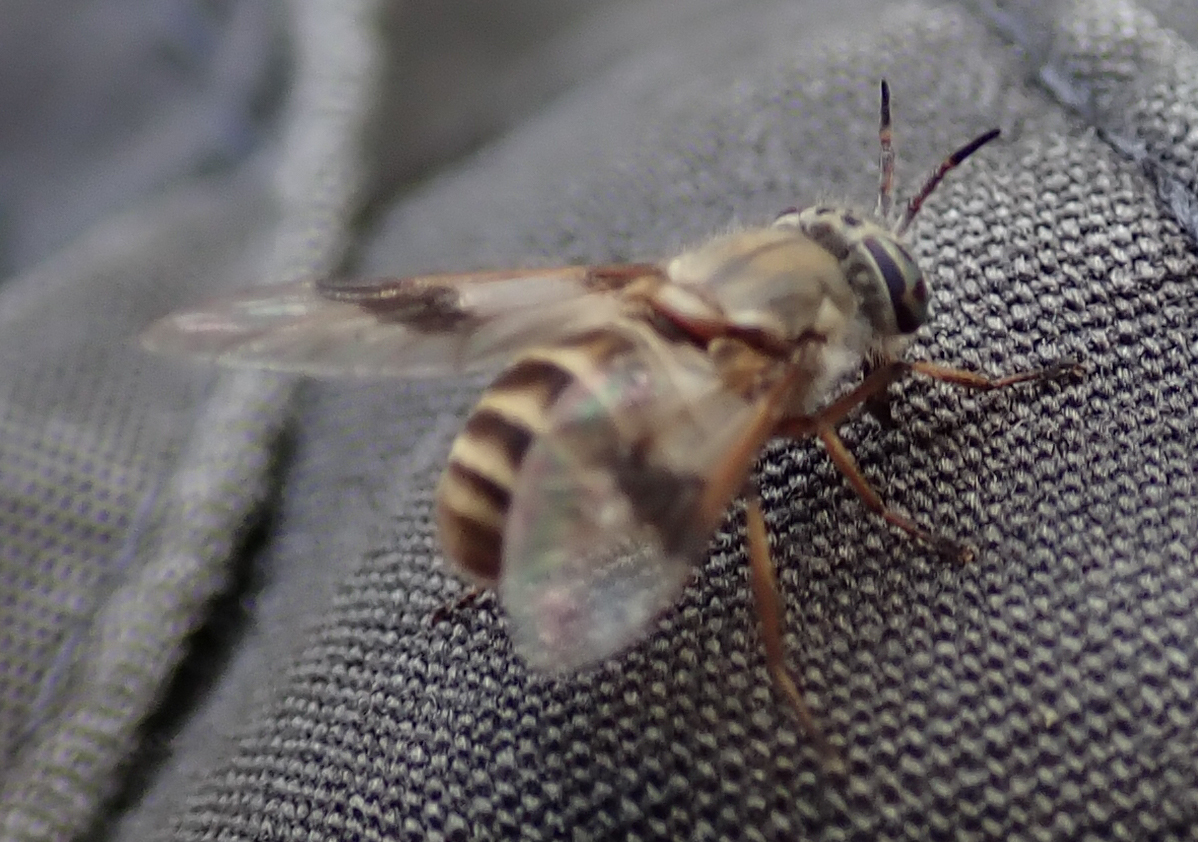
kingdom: Animalia
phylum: Arthropoda
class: Insecta
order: Diptera
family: Tabanidae
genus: Chrysops
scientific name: Chrysops fuscipennis
